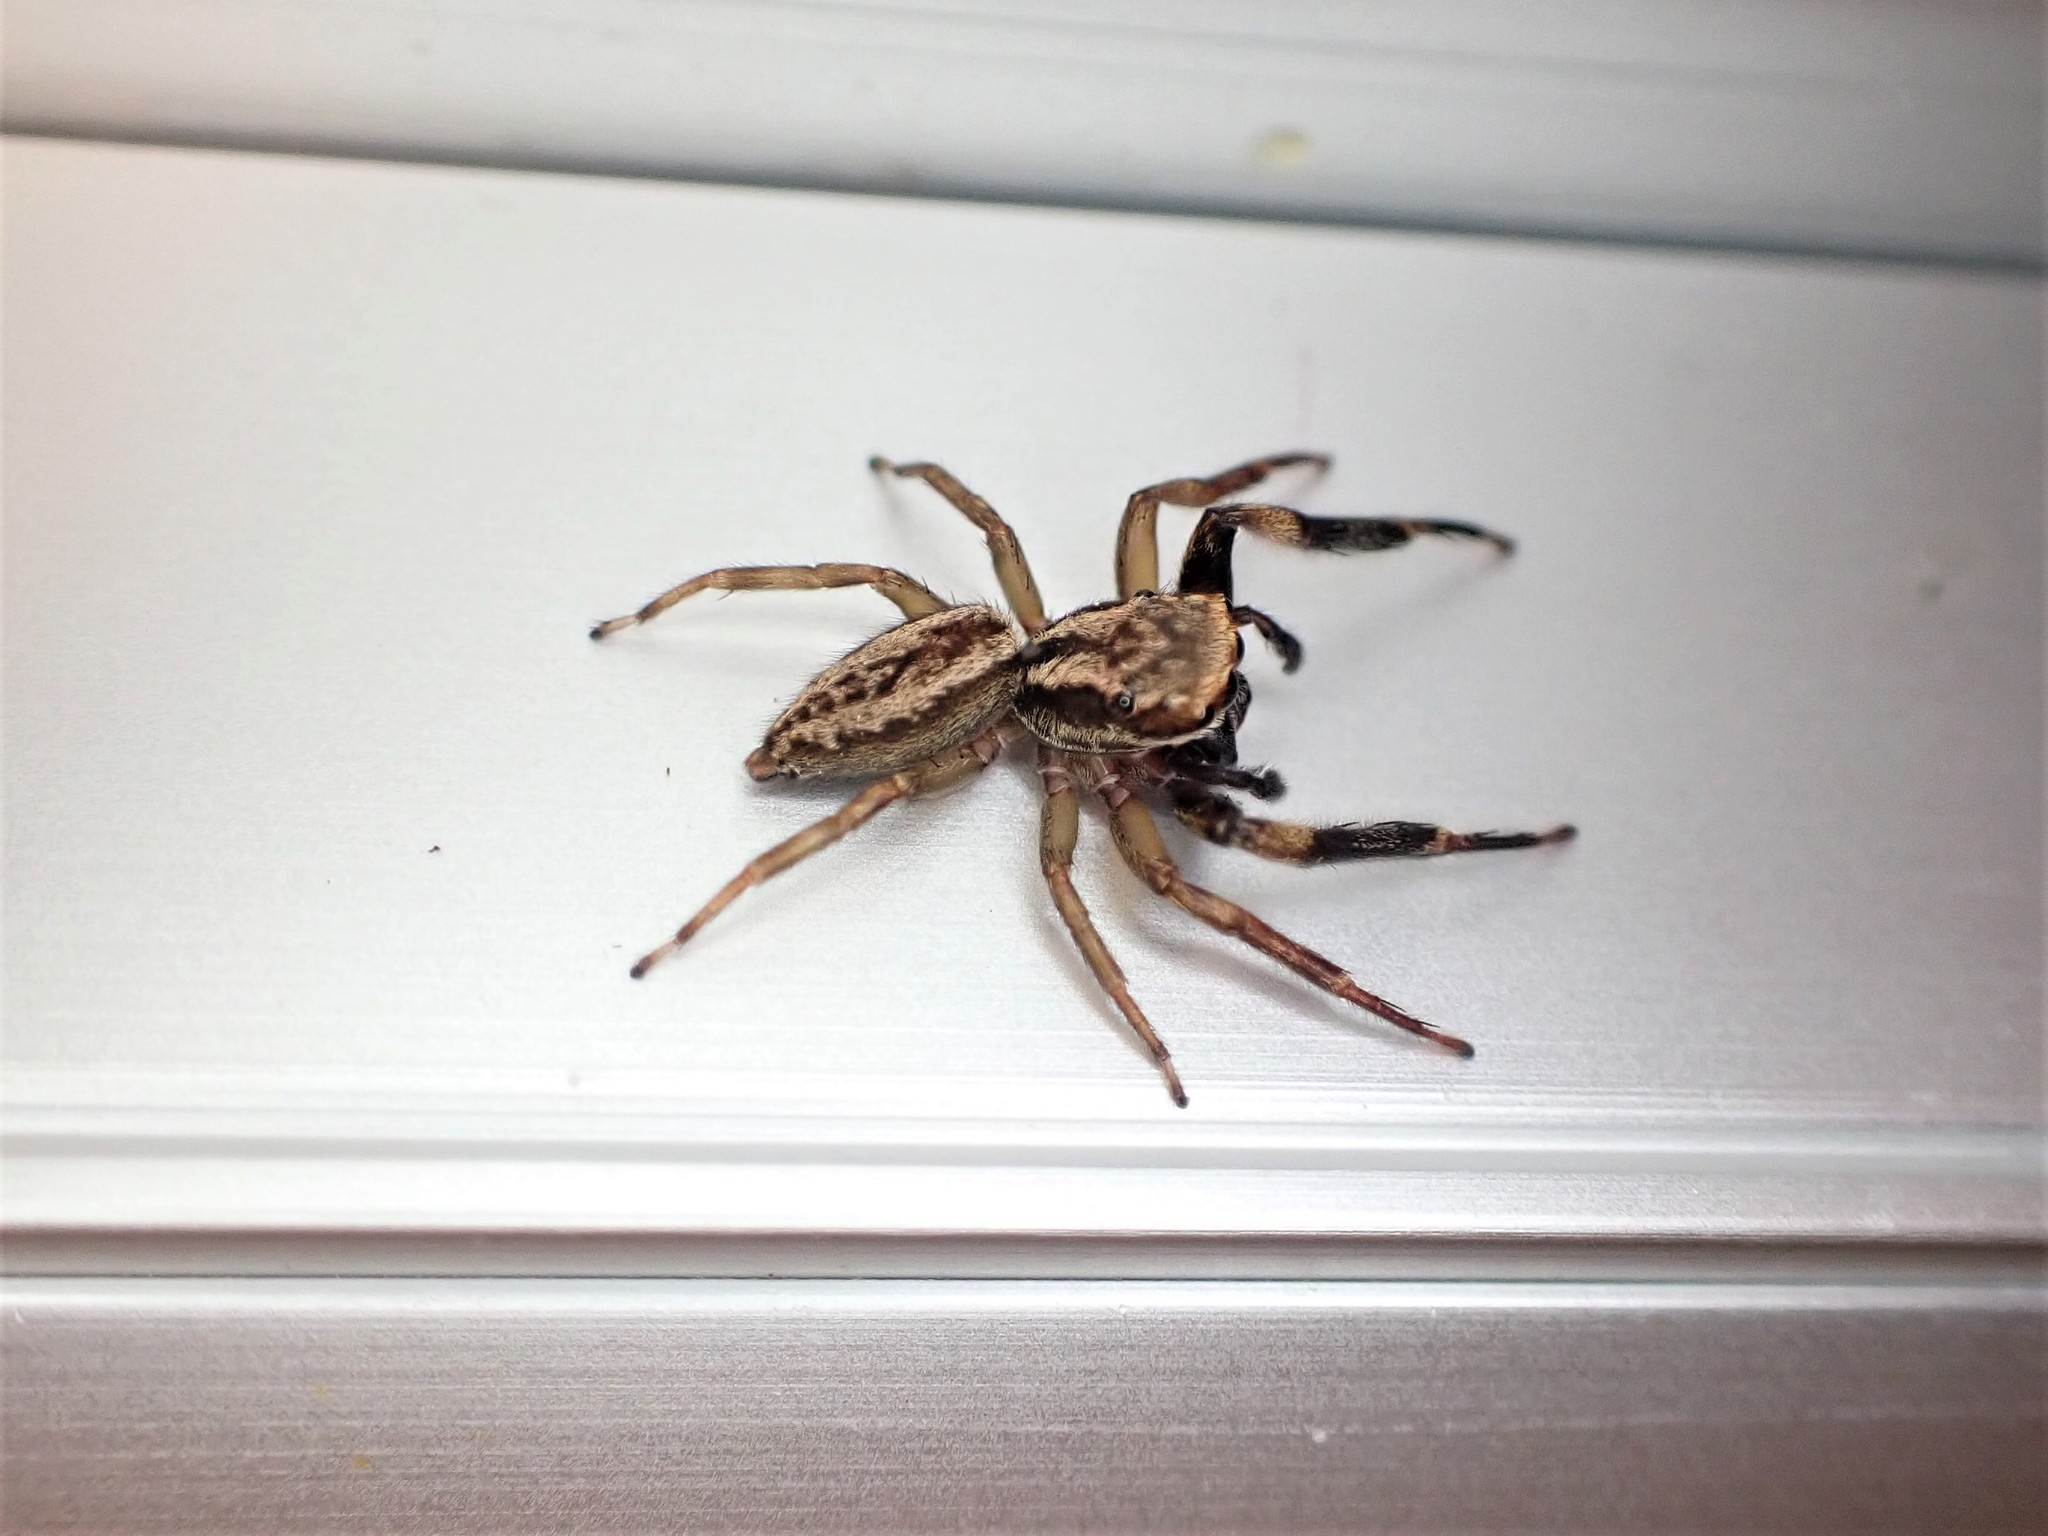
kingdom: Animalia
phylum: Arthropoda
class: Arachnida
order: Araneae
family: Salticidae
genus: Trite
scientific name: Trite auricoma
